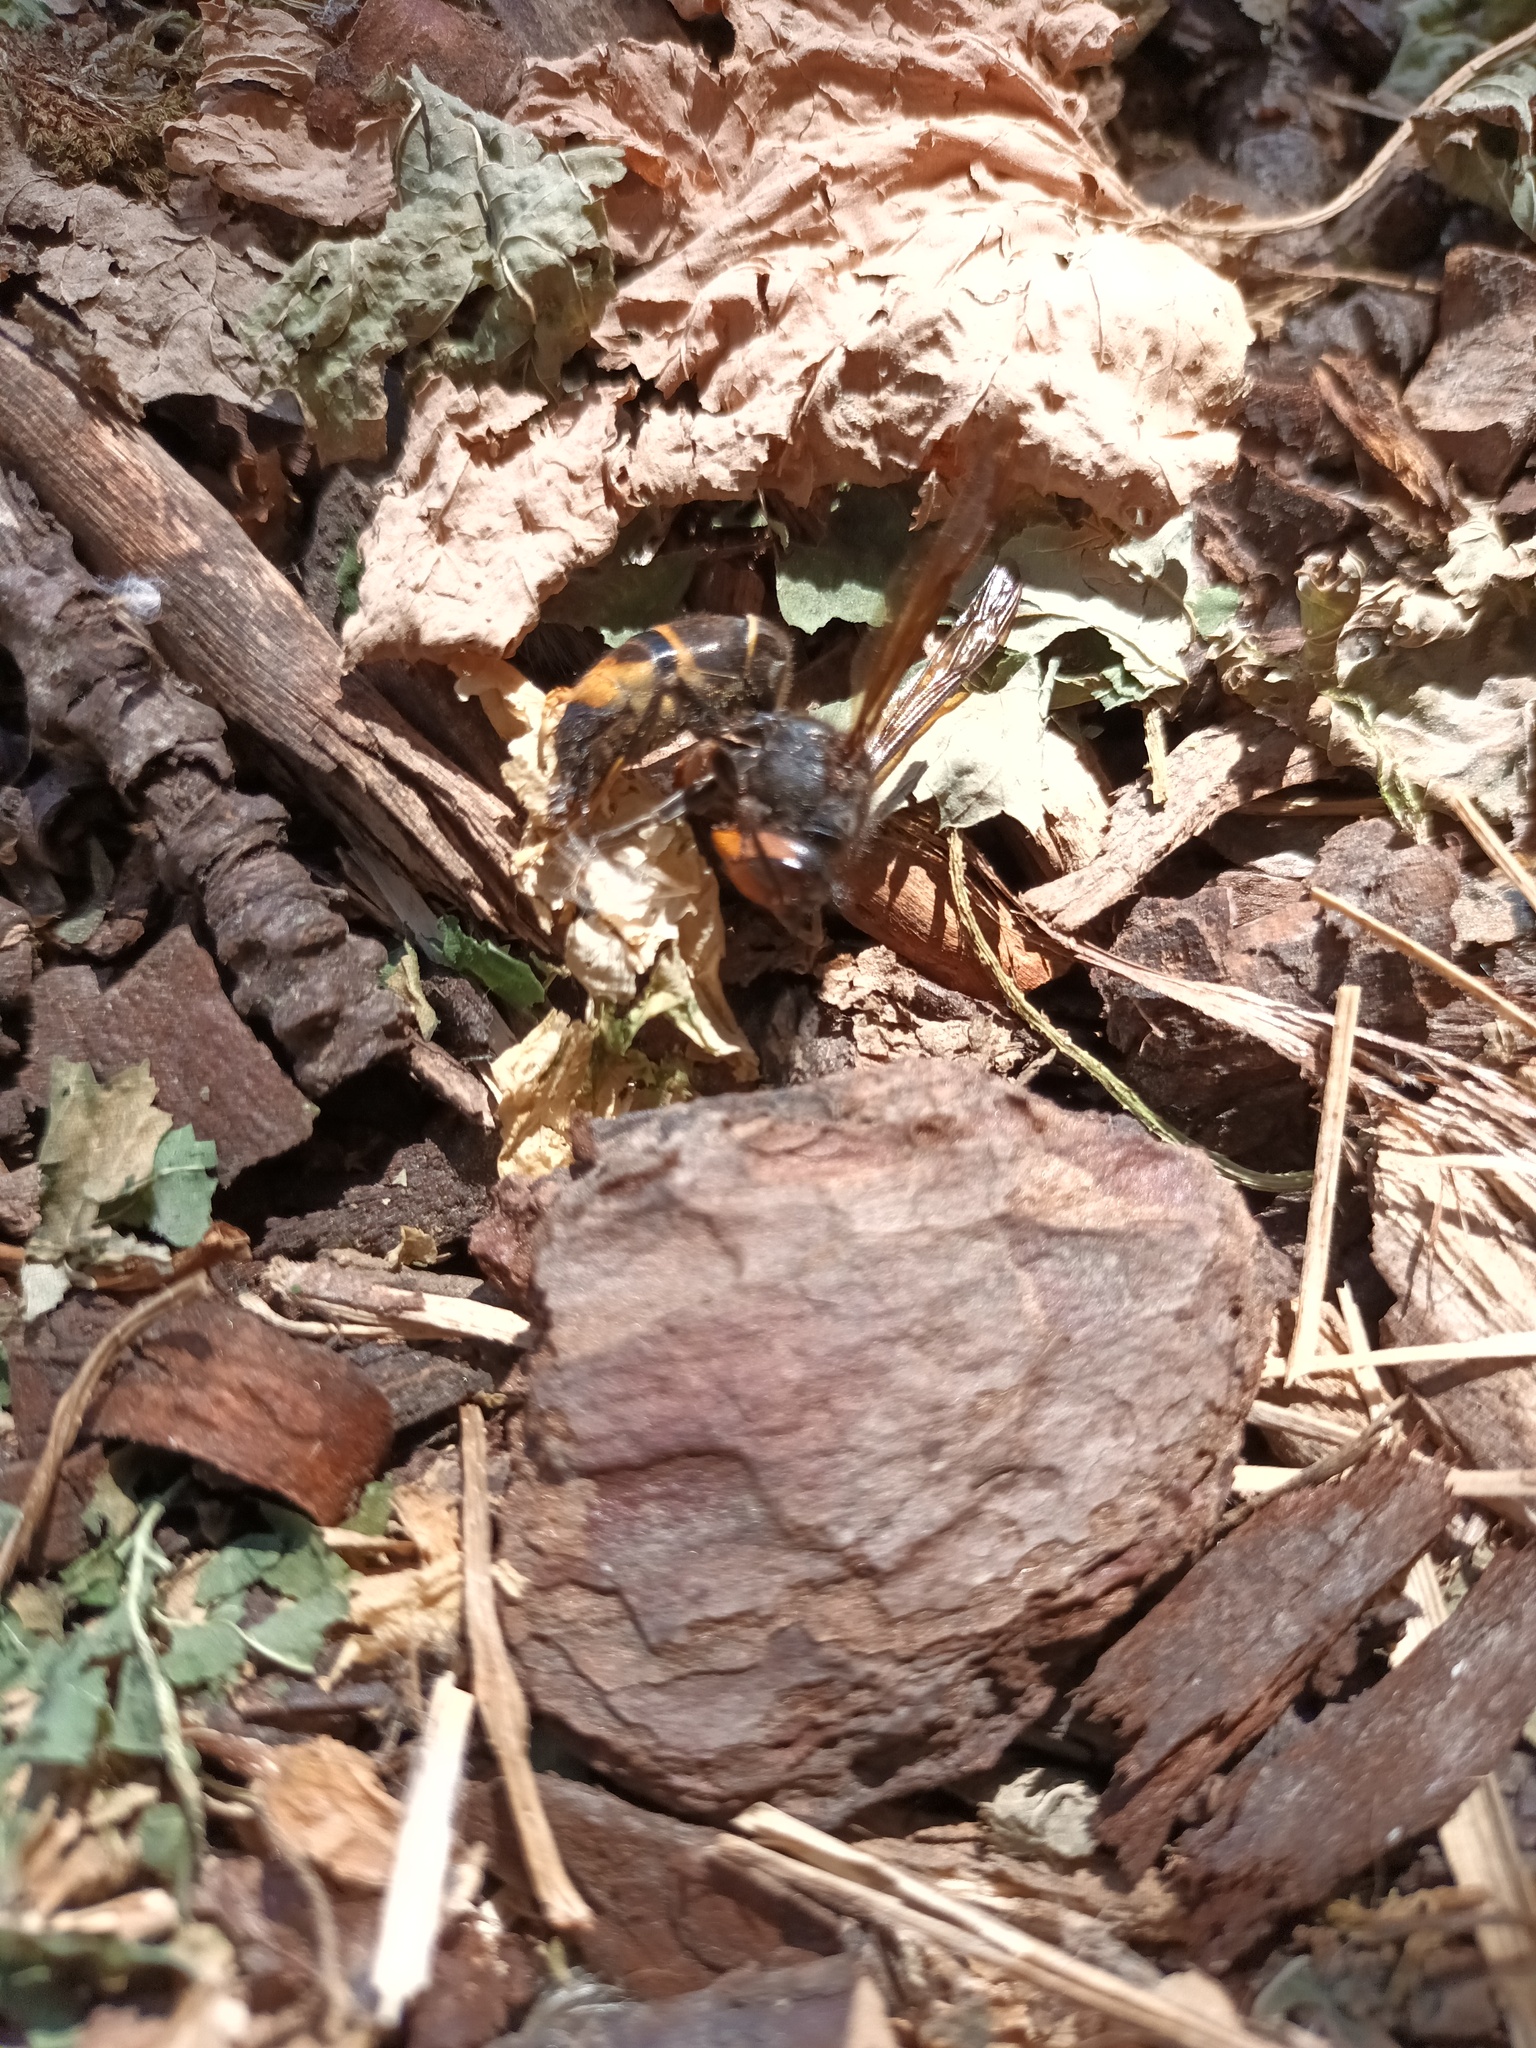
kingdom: Animalia
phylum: Arthropoda
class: Insecta
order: Hymenoptera
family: Vespidae
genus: Vespa
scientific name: Vespa velutina
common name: Asian hornet
